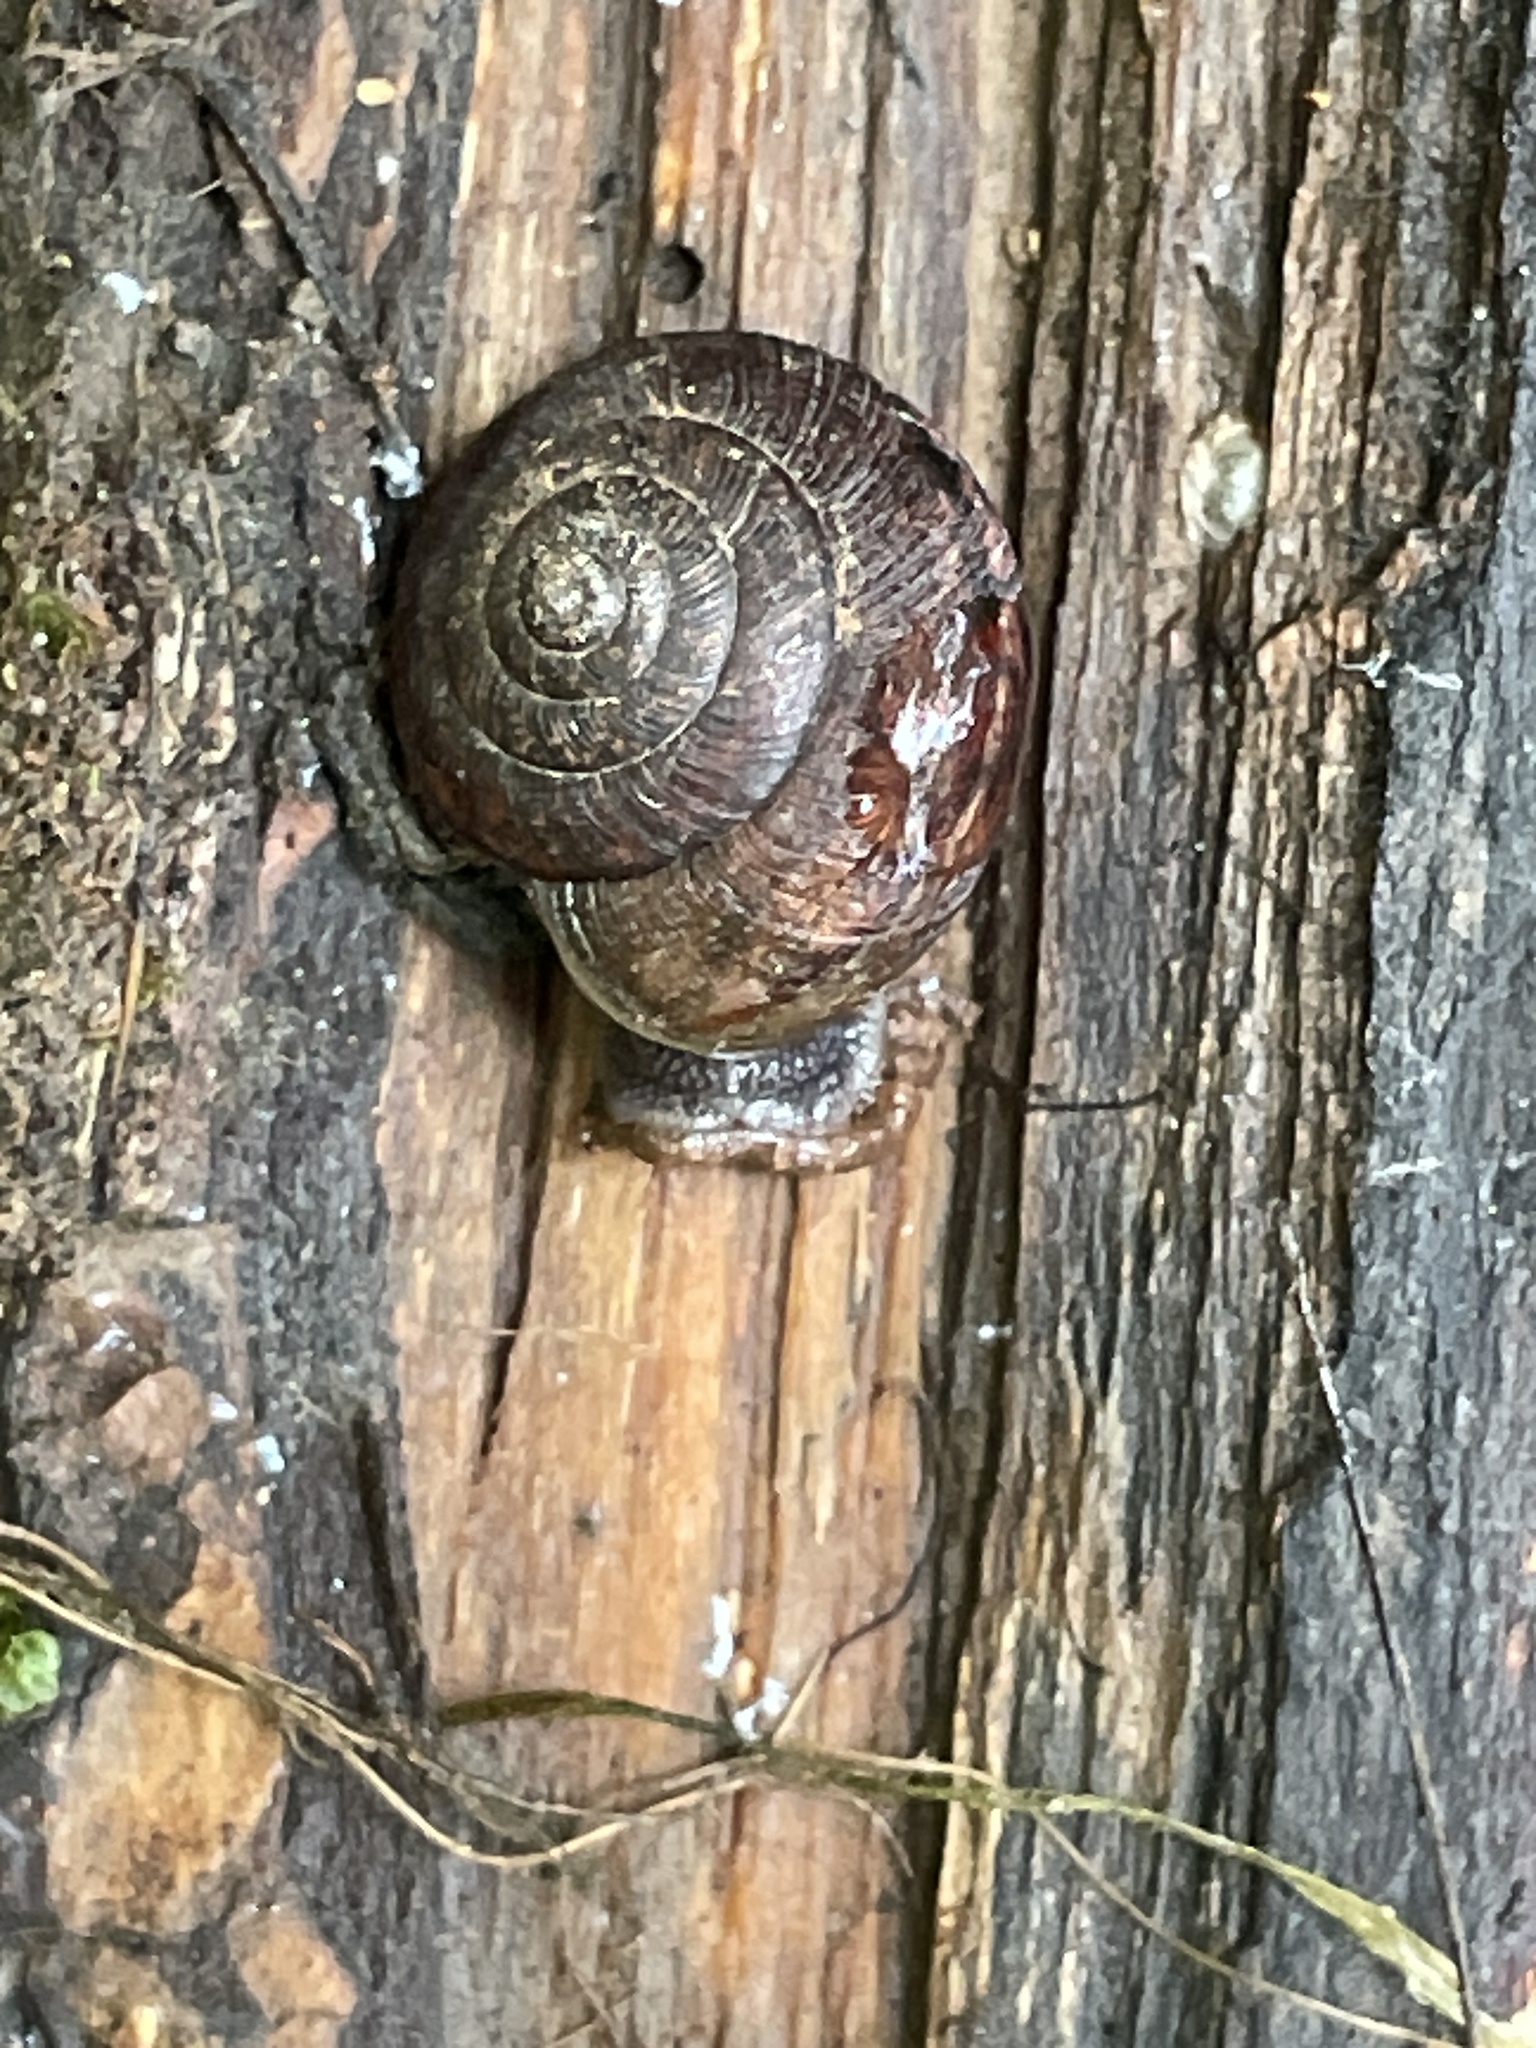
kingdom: Animalia
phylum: Mollusca
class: Gastropoda
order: Stylommatophora
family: Xanthonychidae
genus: Helminthoglypta
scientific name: Helminthoglypta nickliniana
